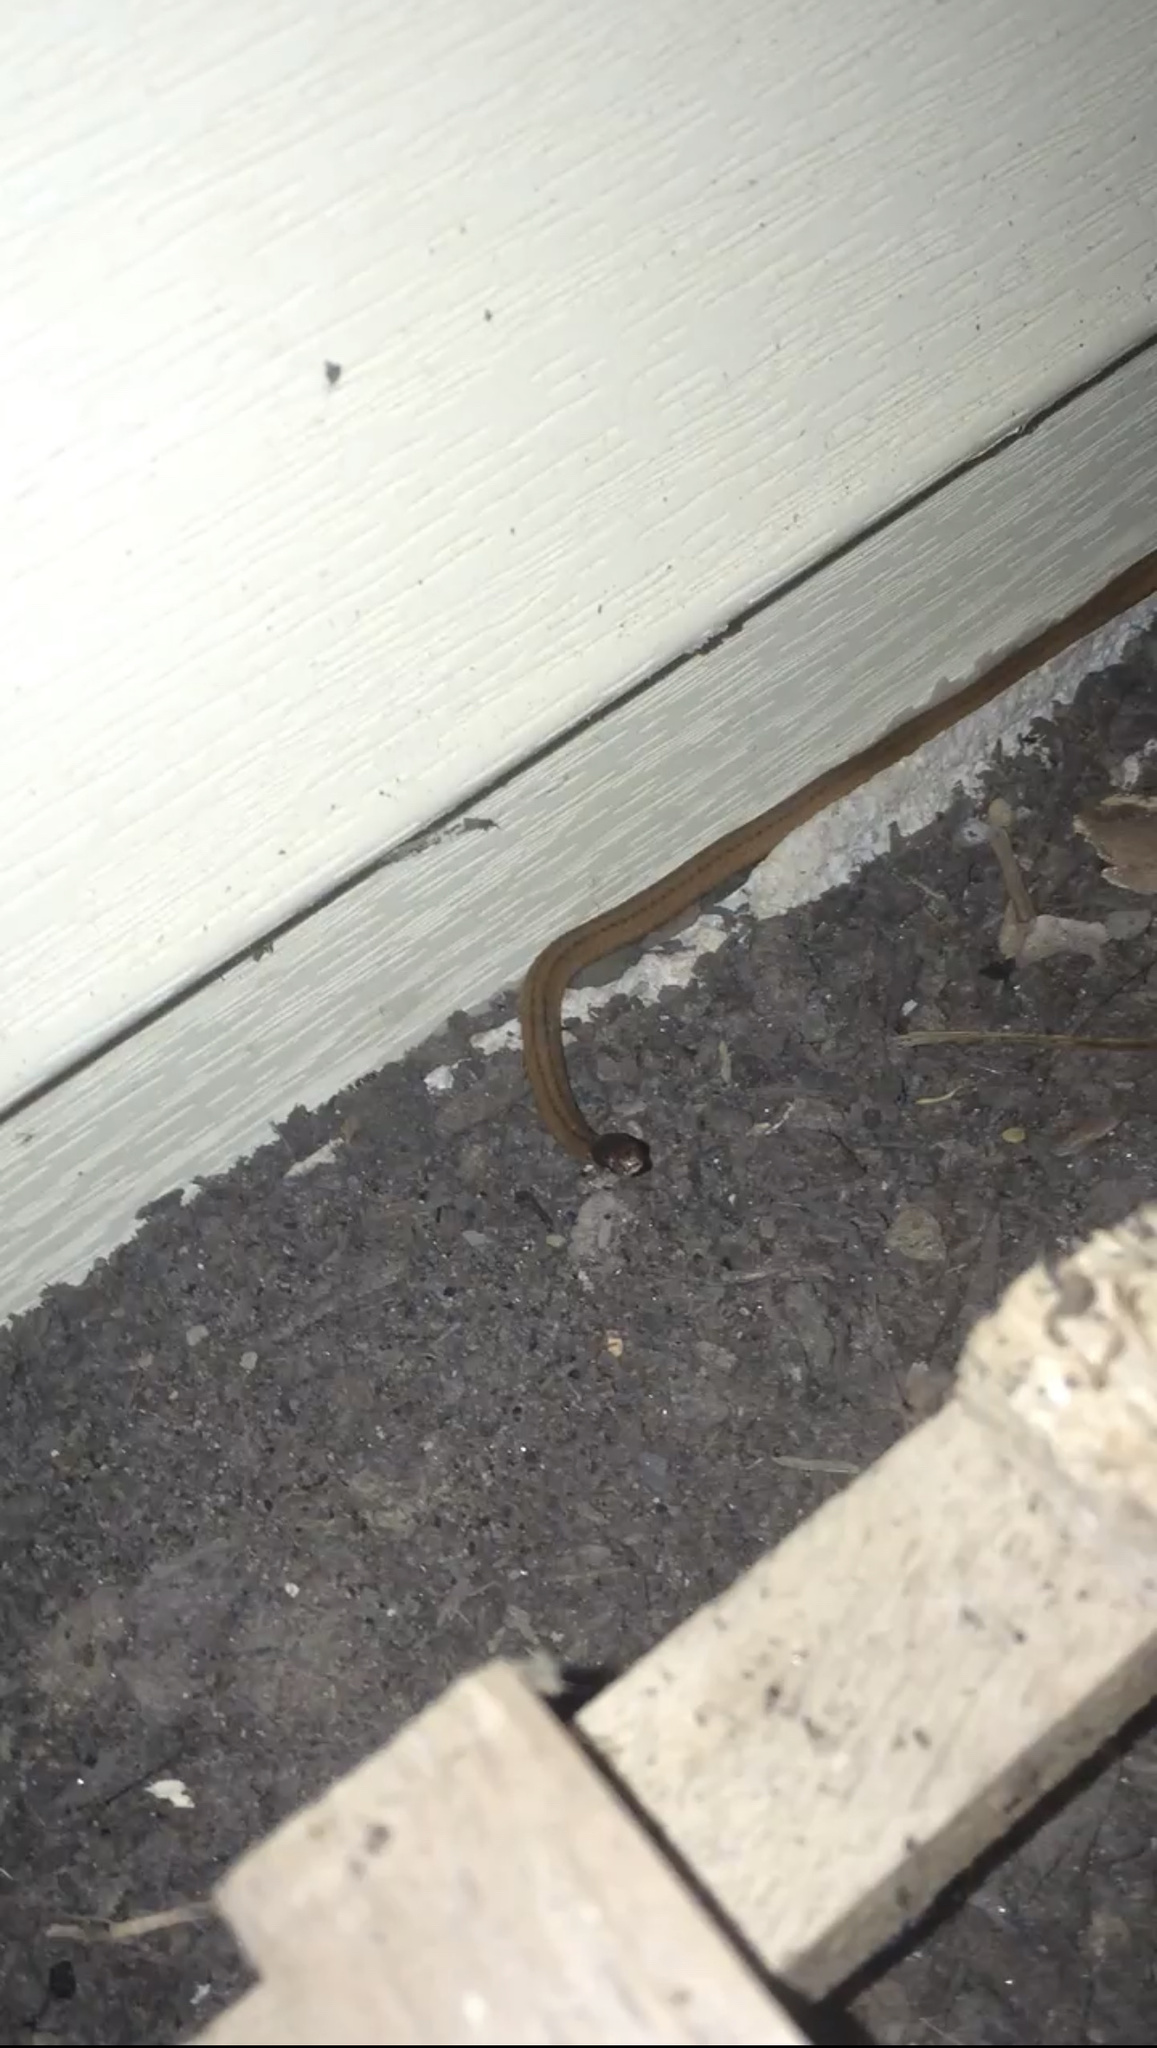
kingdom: Animalia
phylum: Chordata
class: Squamata
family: Colubridae
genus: Storeria
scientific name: Storeria occipitomaculata
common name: Redbelly snake
